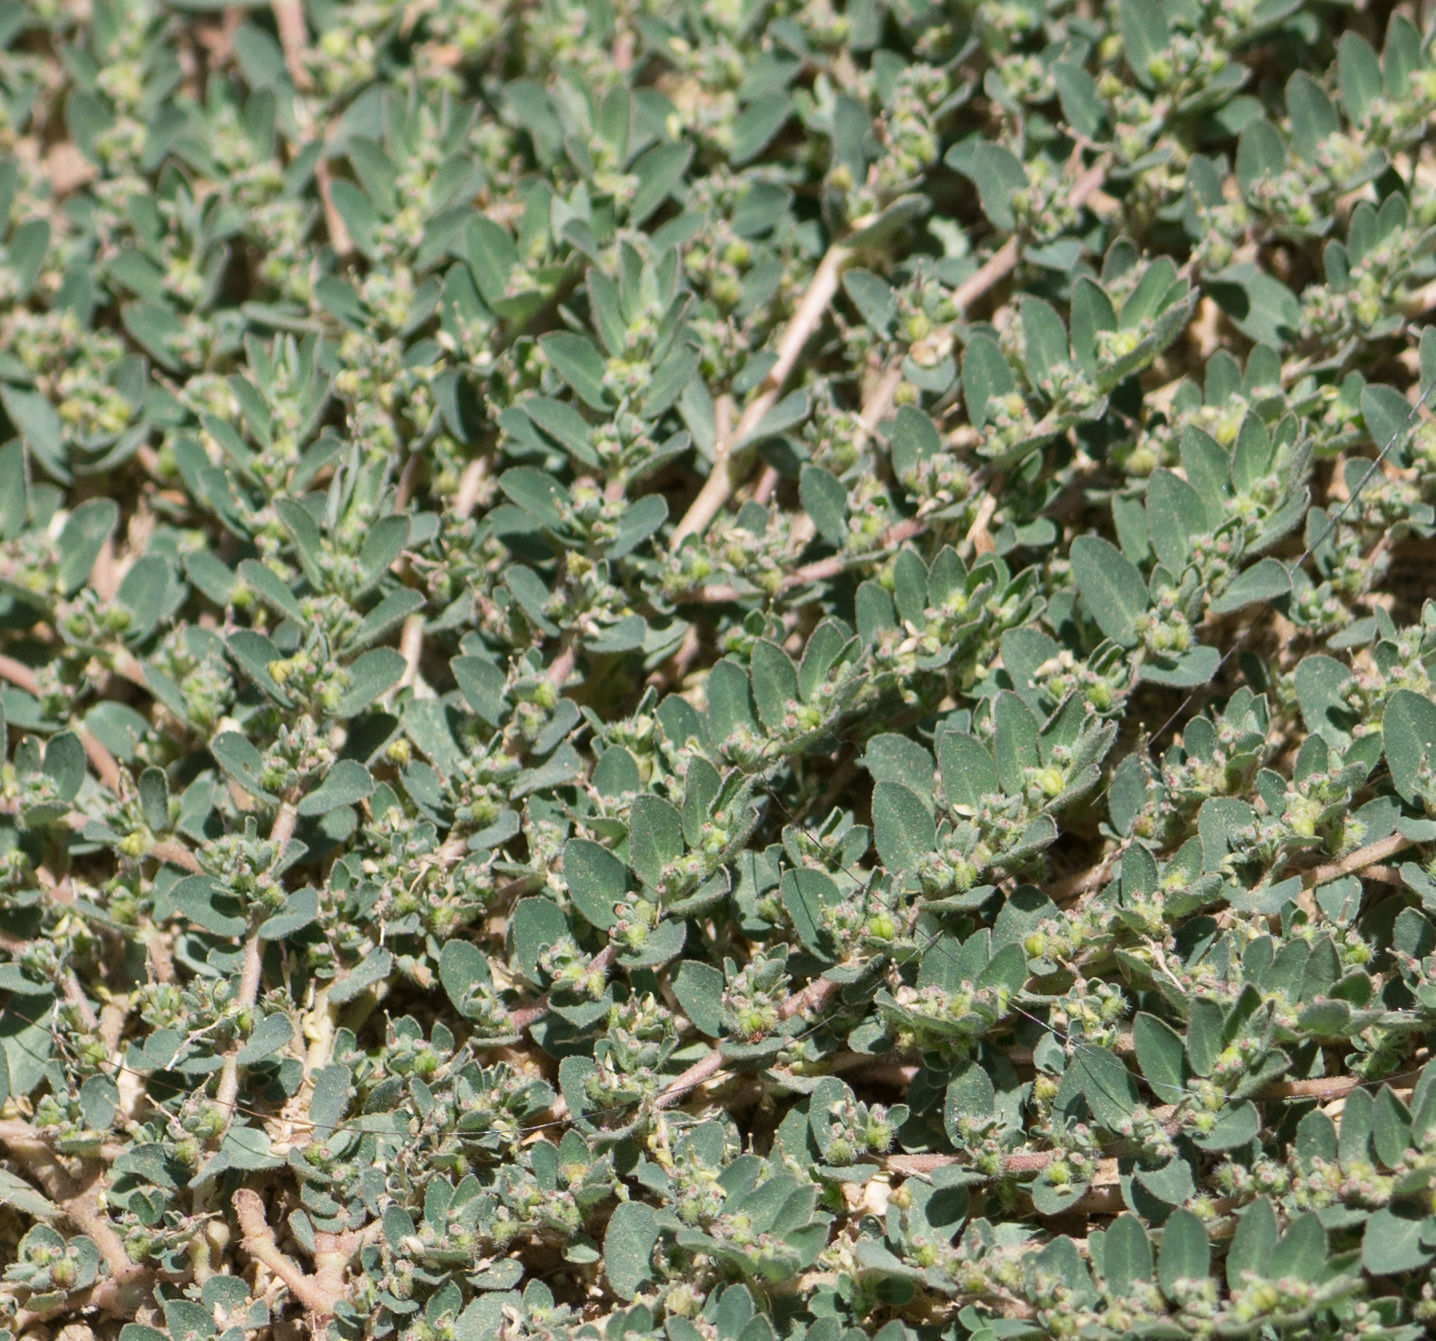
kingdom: Plantae
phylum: Tracheophyta
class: Magnoliopsida
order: Malpighiales
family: Euphorbiaceae
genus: Euphorbia
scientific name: Euphorbia prostrata
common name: Prostrate sandmat
